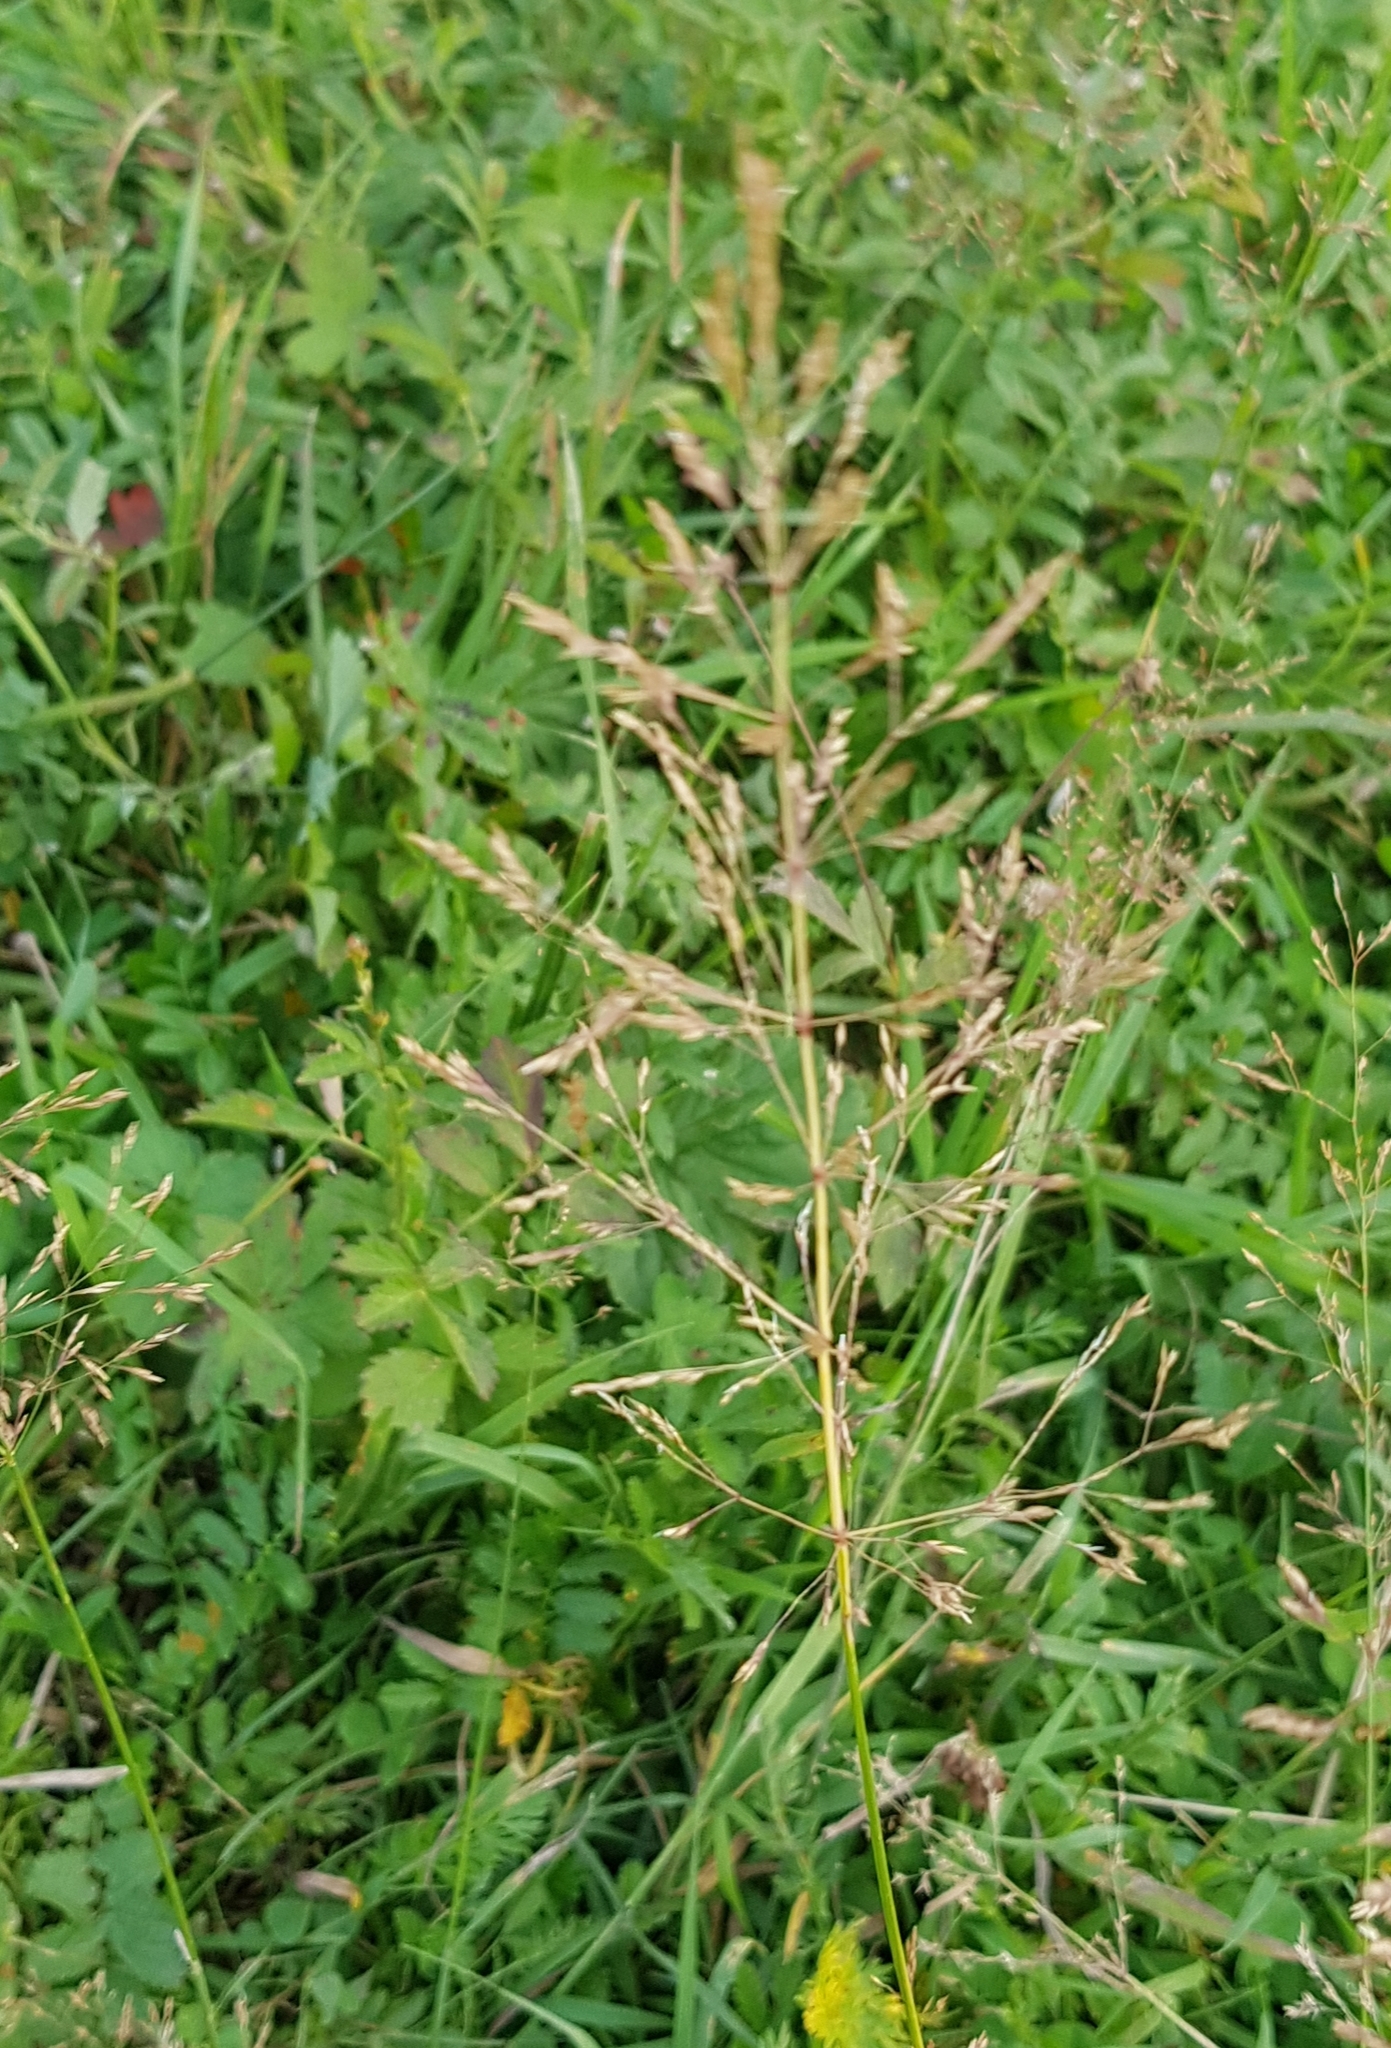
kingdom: Plantae
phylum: Tracheophyta
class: Liliopsida
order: Poales
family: Poaceae
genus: Poa
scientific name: Poa pratensis
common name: Kentucky bluegrass
